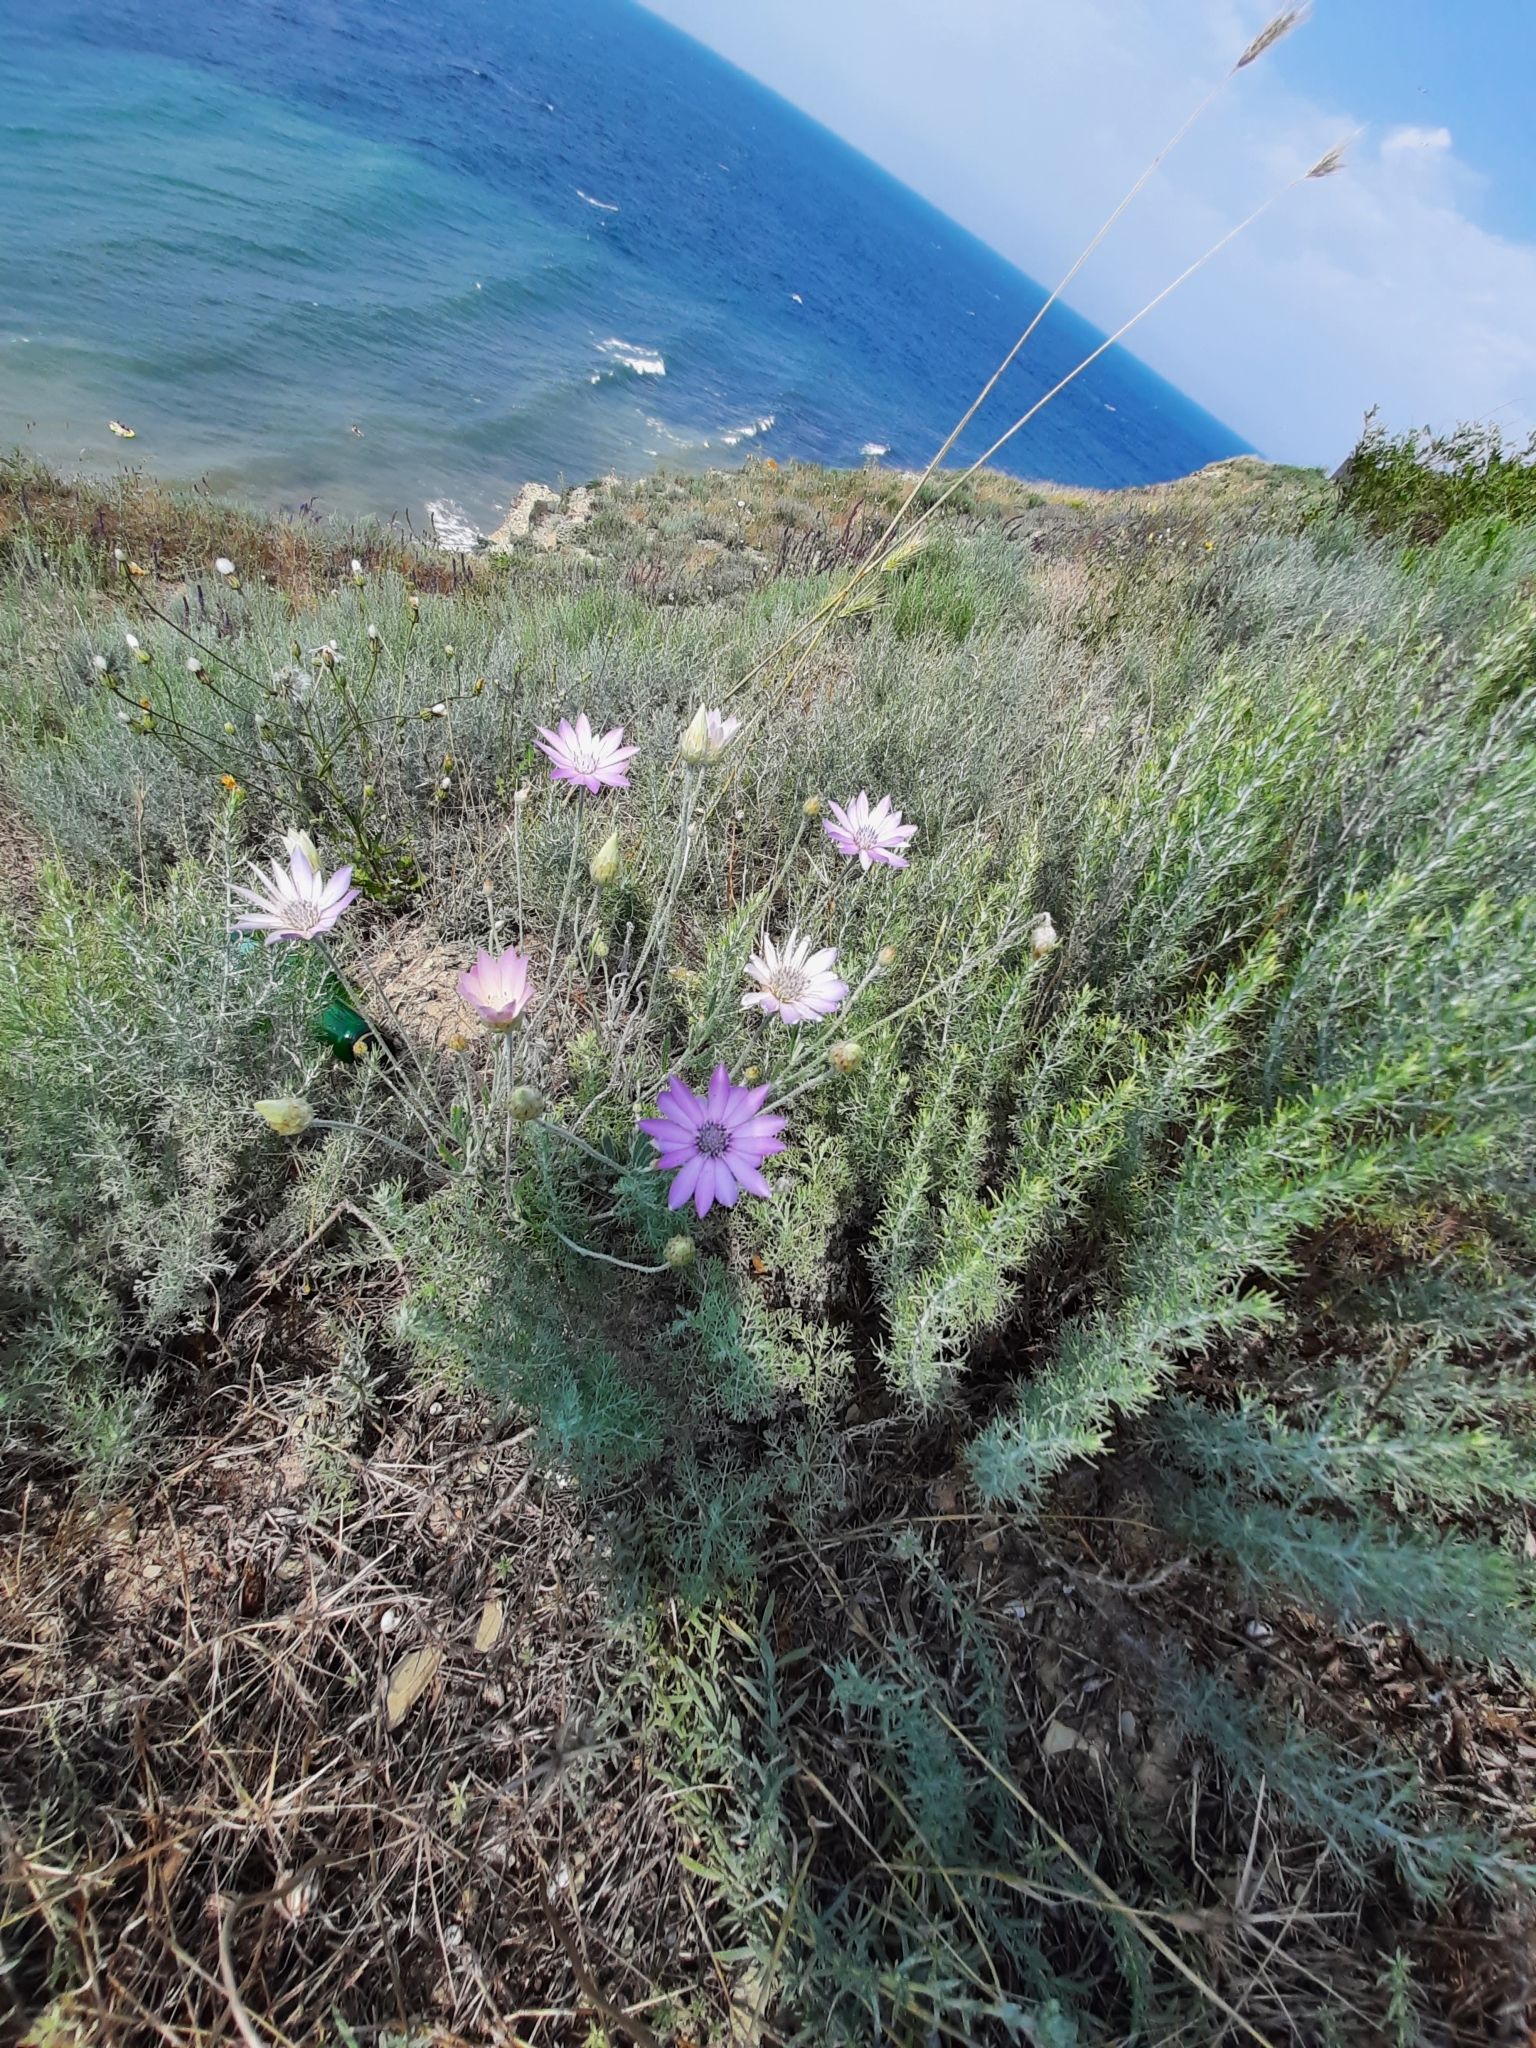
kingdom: Plantae
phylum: Tracheophyta
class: Magnoliopsida
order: Asterales
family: Asteraceae
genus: Xeranthemum
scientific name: Xeranthemum annuum
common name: Immortelle
